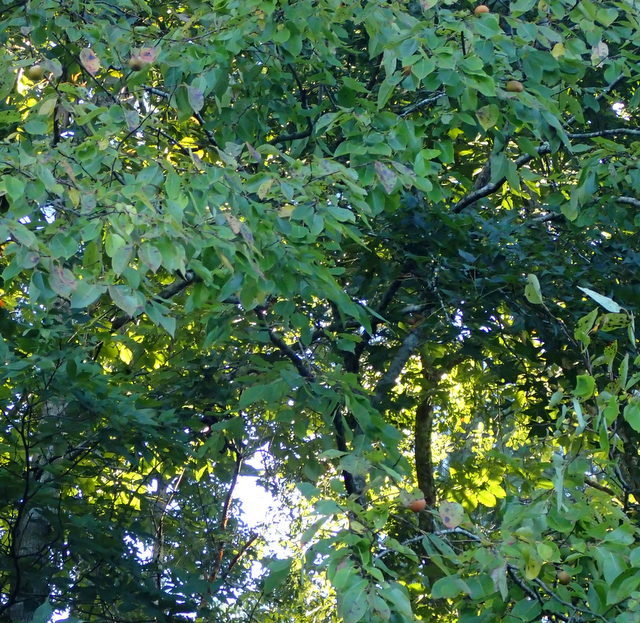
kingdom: Plantae
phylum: Tracheophyta
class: Magnoliopsida
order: Ericales
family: Ebenaceae
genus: Diospyros
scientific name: Diospyros virginiana
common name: Persimmon
